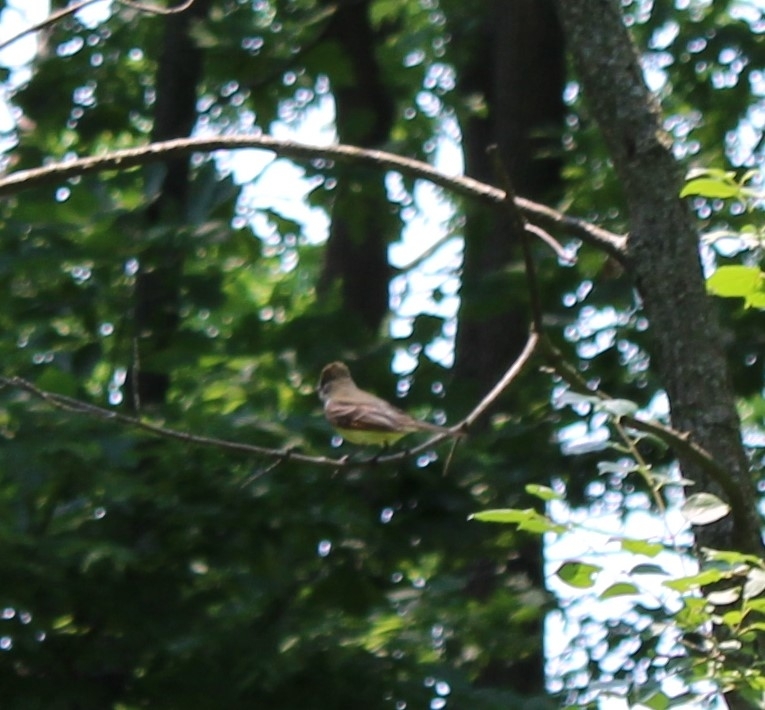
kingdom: Animalia
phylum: Chordata
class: Aves
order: Passeriformes
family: Tyrannidae
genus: Myiarchus
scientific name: Myiarchus crinitus
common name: Great crested flycatcher
